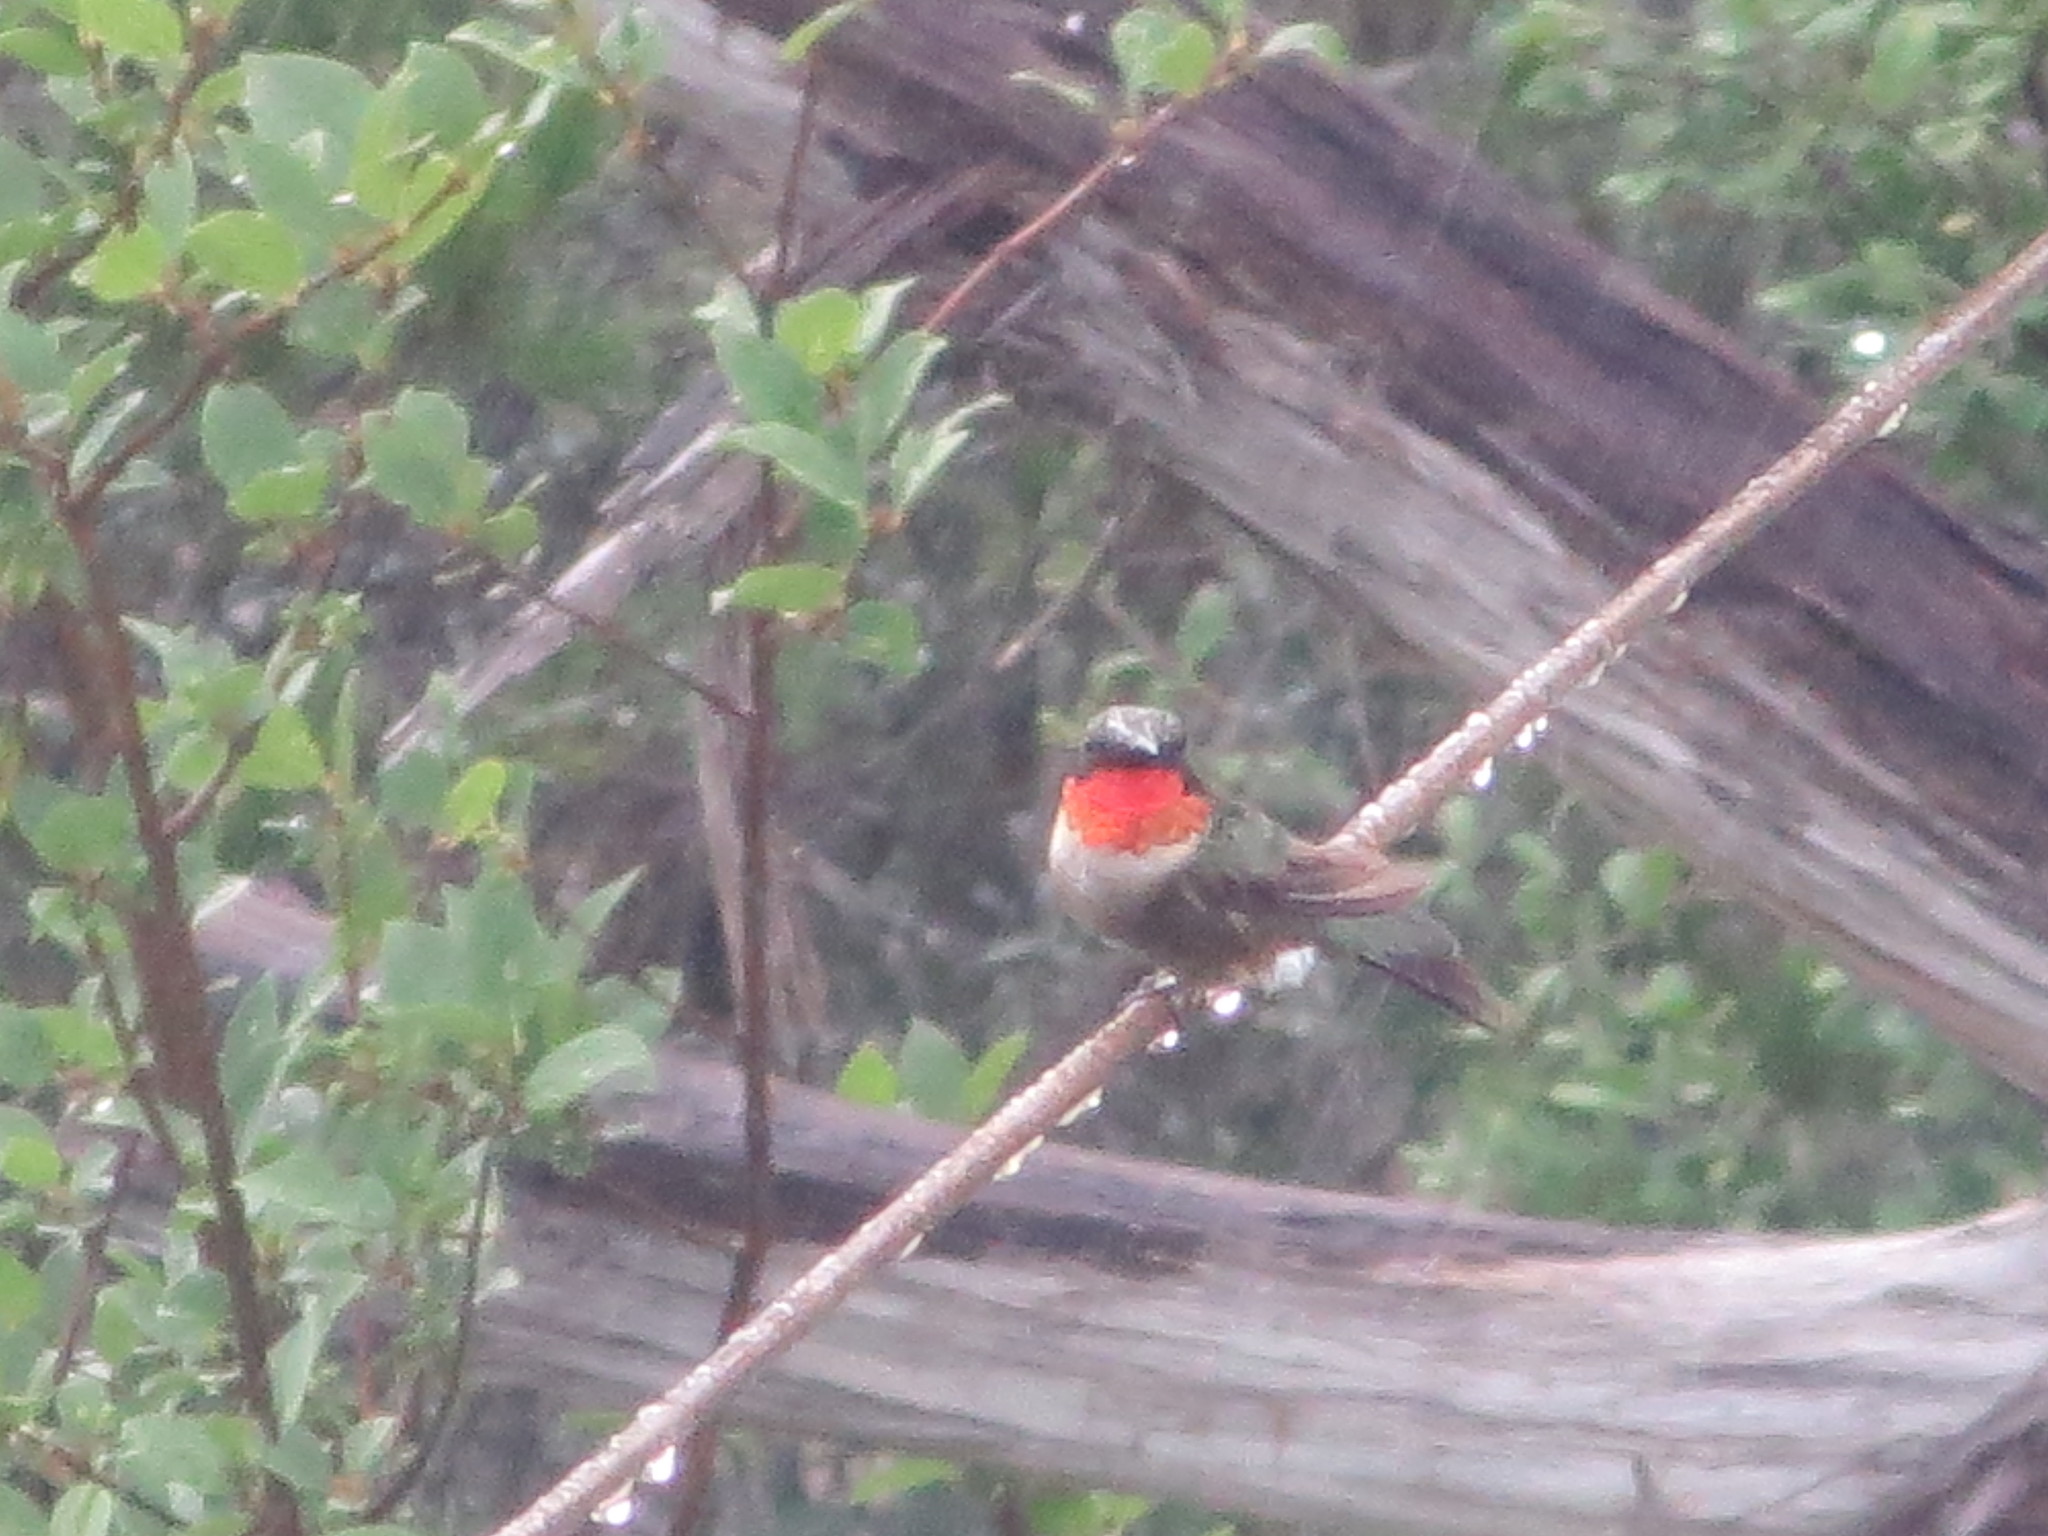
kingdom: Animalia
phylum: Chordata
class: Aves
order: Apodiformes
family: Trochilidae
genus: Archilochus
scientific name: Archilochus colubris
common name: Ruby-throated hummingbird
